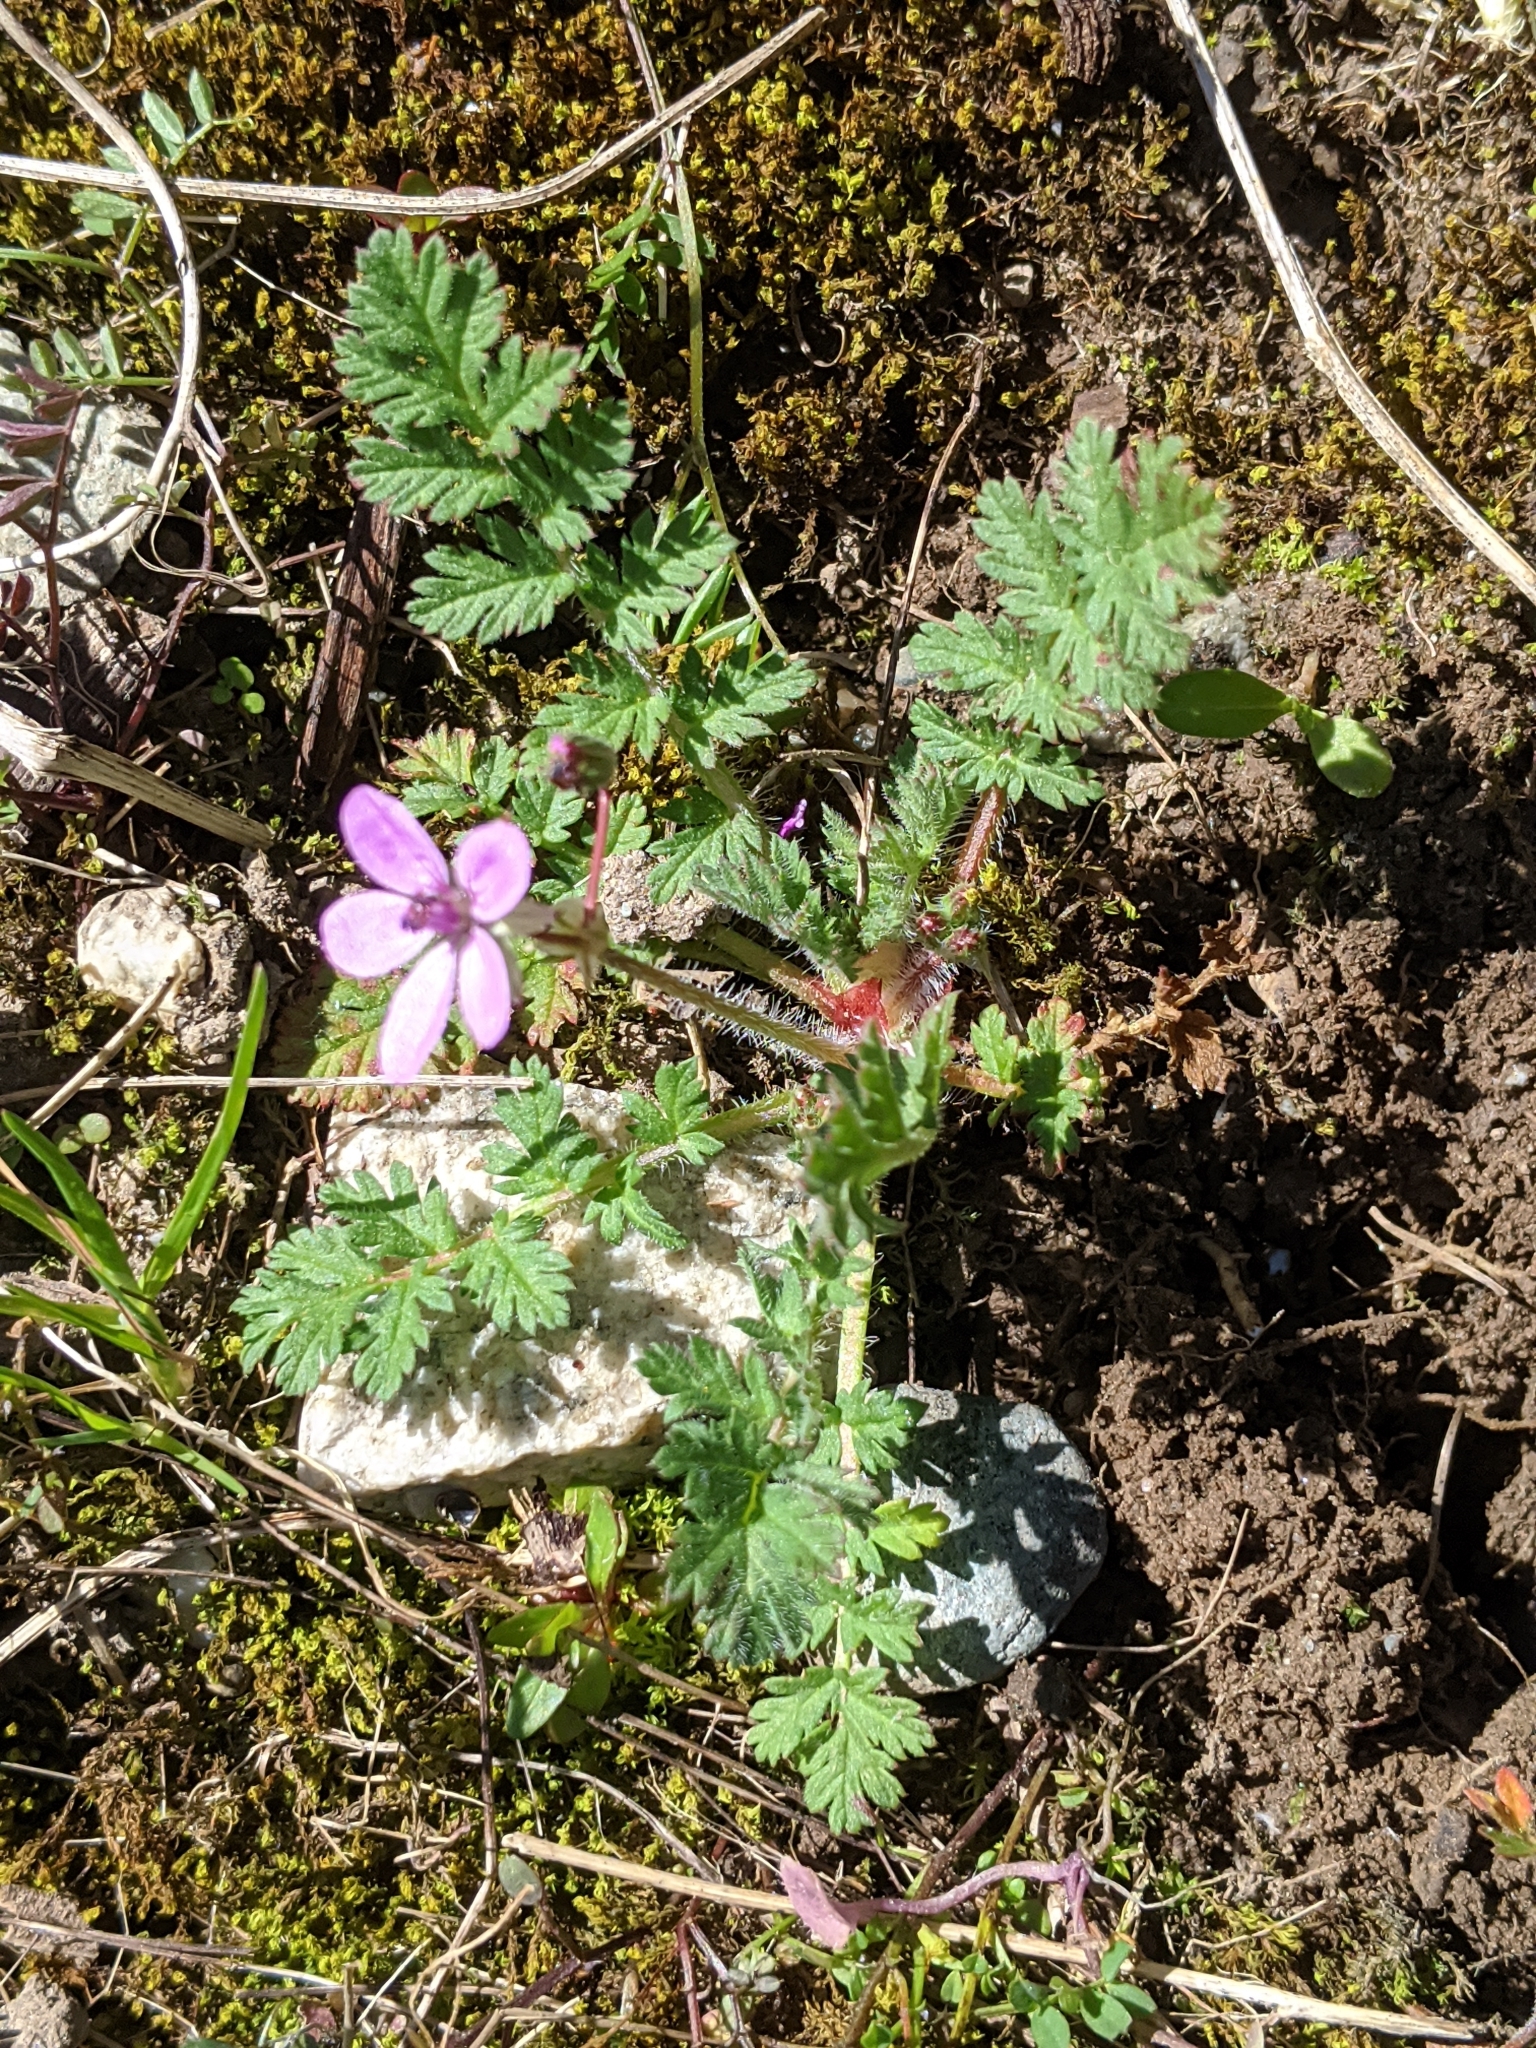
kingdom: Plantae
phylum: Tracheophyta
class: Magnoliopsida
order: Geraniales
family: Geraniaceae
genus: Erodium
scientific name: Erodium cicutarium
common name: Common stork's-bill
